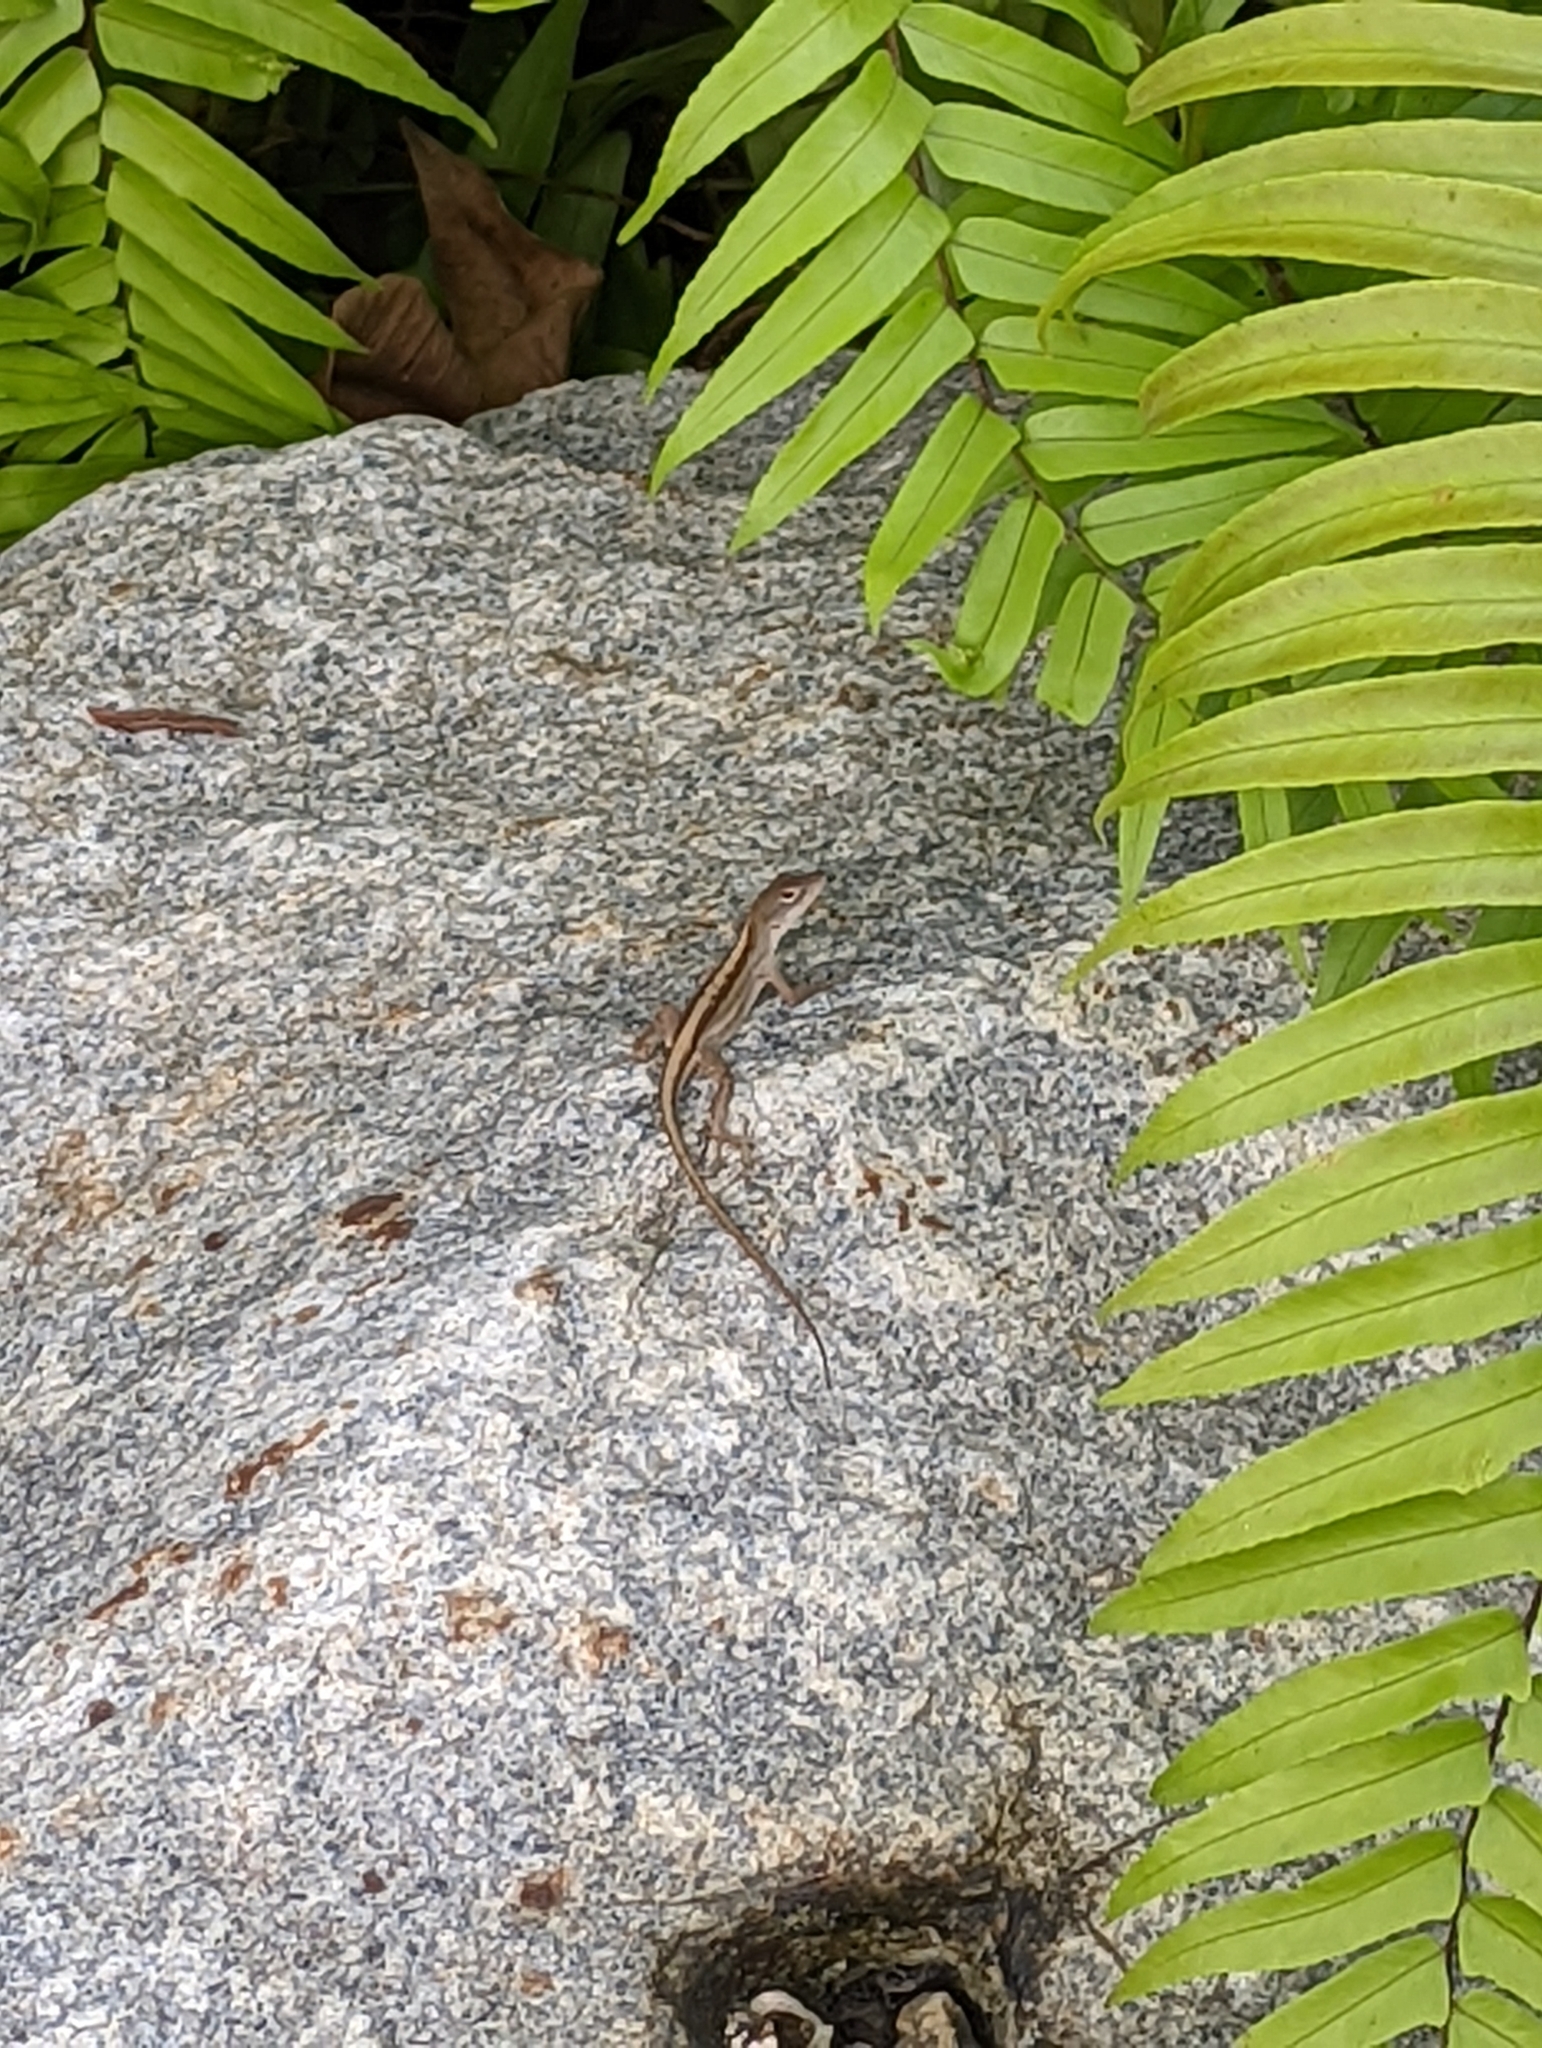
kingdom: Animalia
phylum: Chordata
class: Squamata
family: Dactyloidae
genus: Anolis
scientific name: Anolis sagrei
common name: Brown anole
